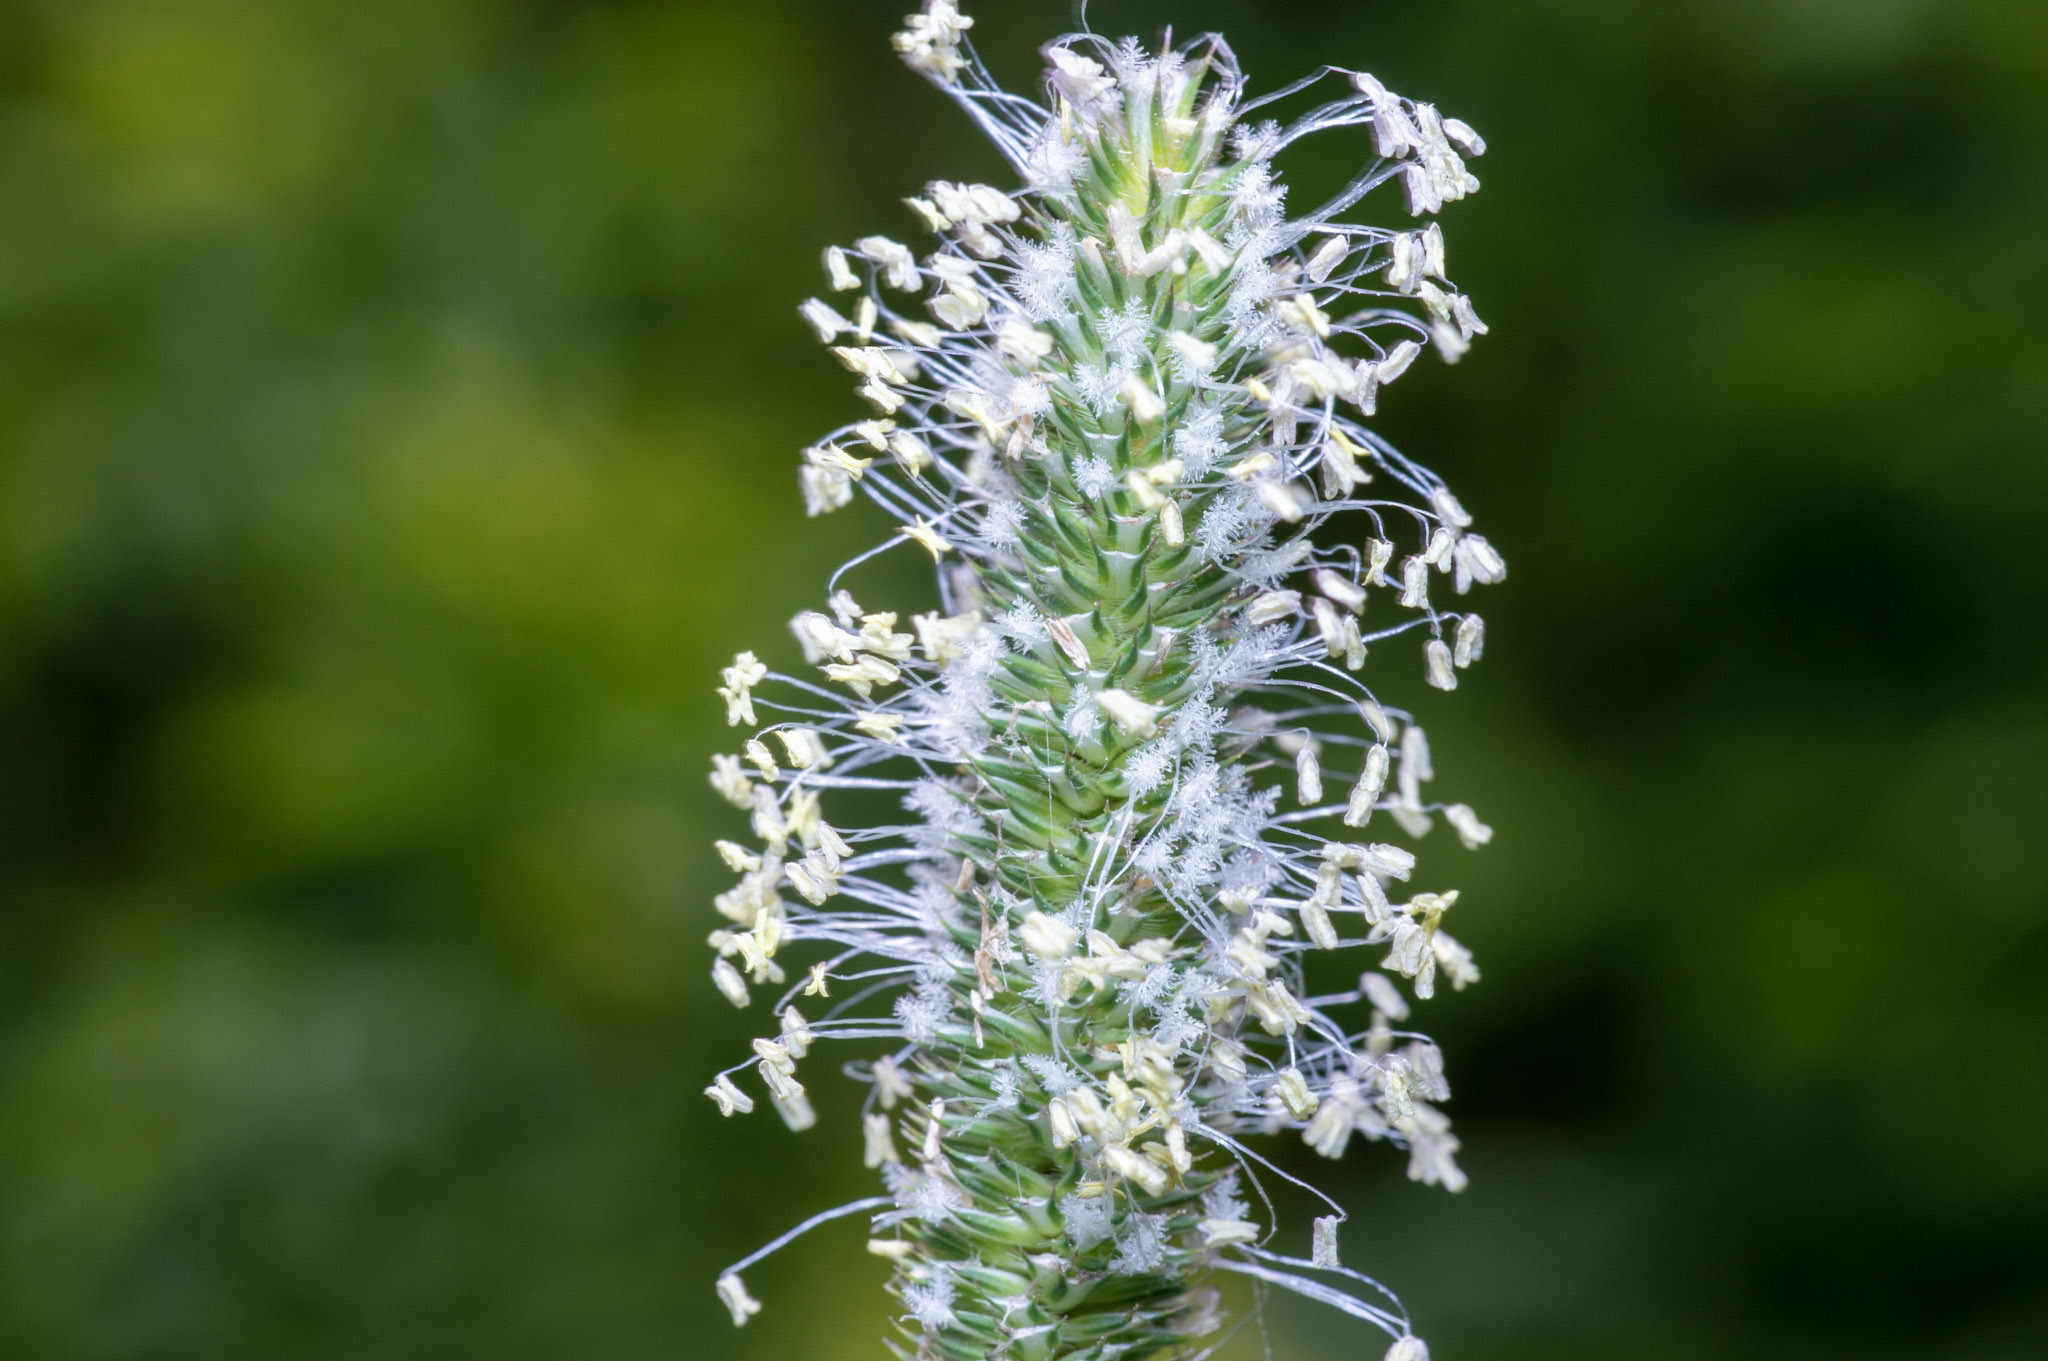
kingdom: Plantae
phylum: Tracheophyta
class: Liliopsida
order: Poales
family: Poaceae
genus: Phleum
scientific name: Phleum pratense
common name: Timothy grass
